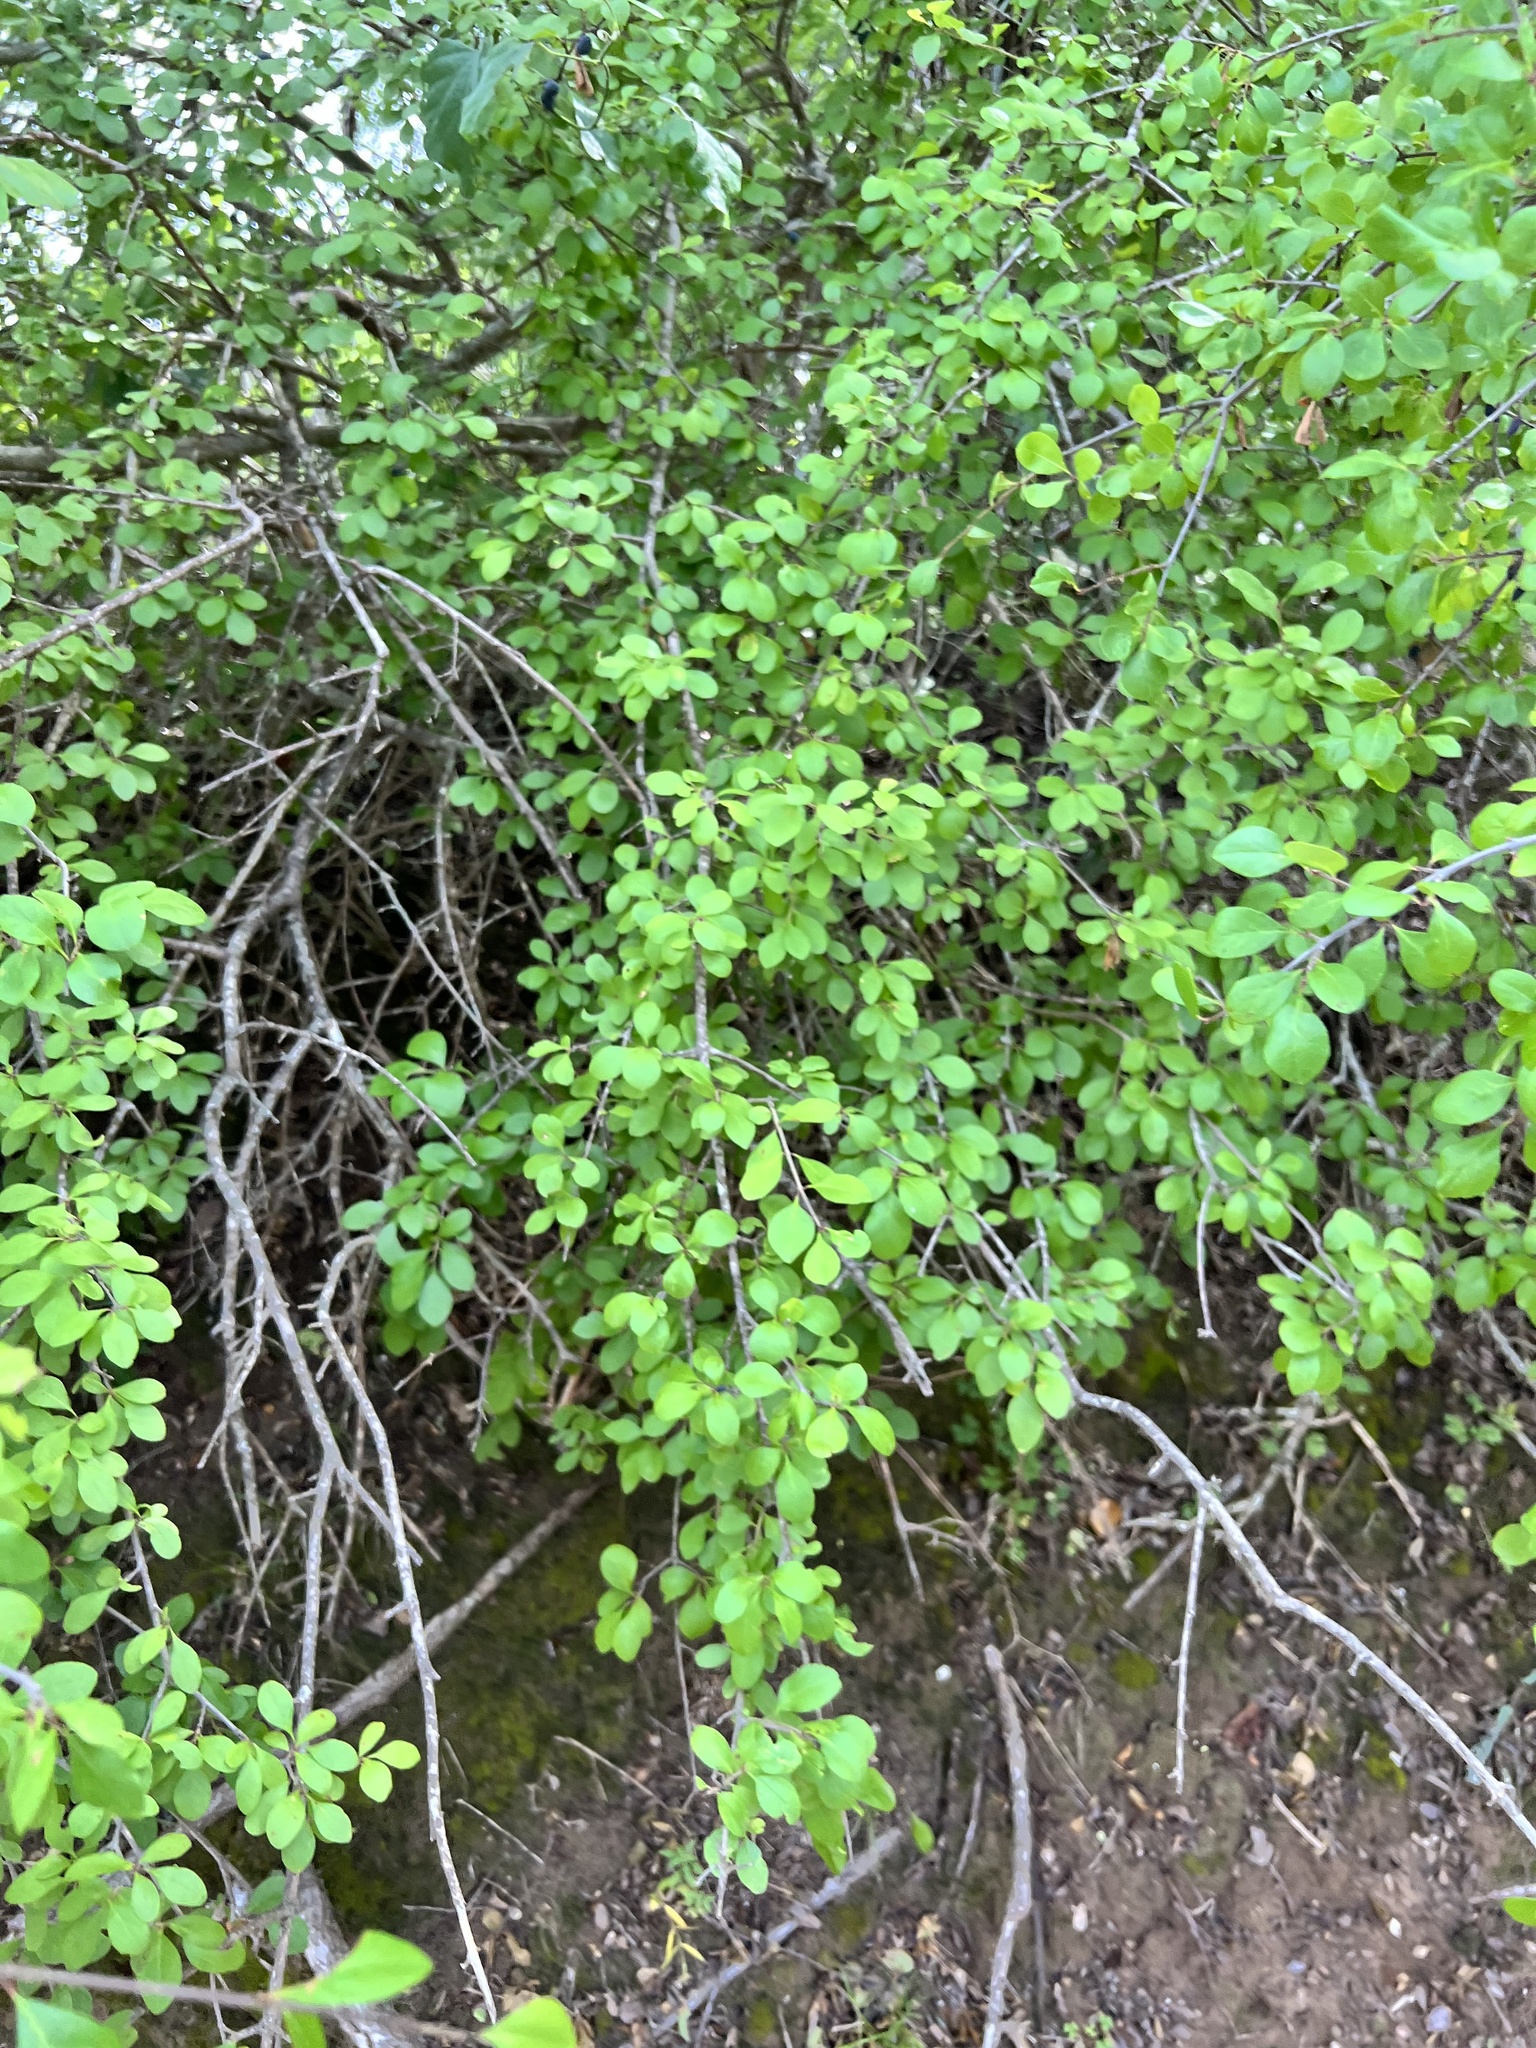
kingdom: Plantae
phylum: Tracheophyta
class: Magnoliopsida
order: Lamiales
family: Oleaceae
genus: Forestiera
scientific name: Forestiera pubescens
